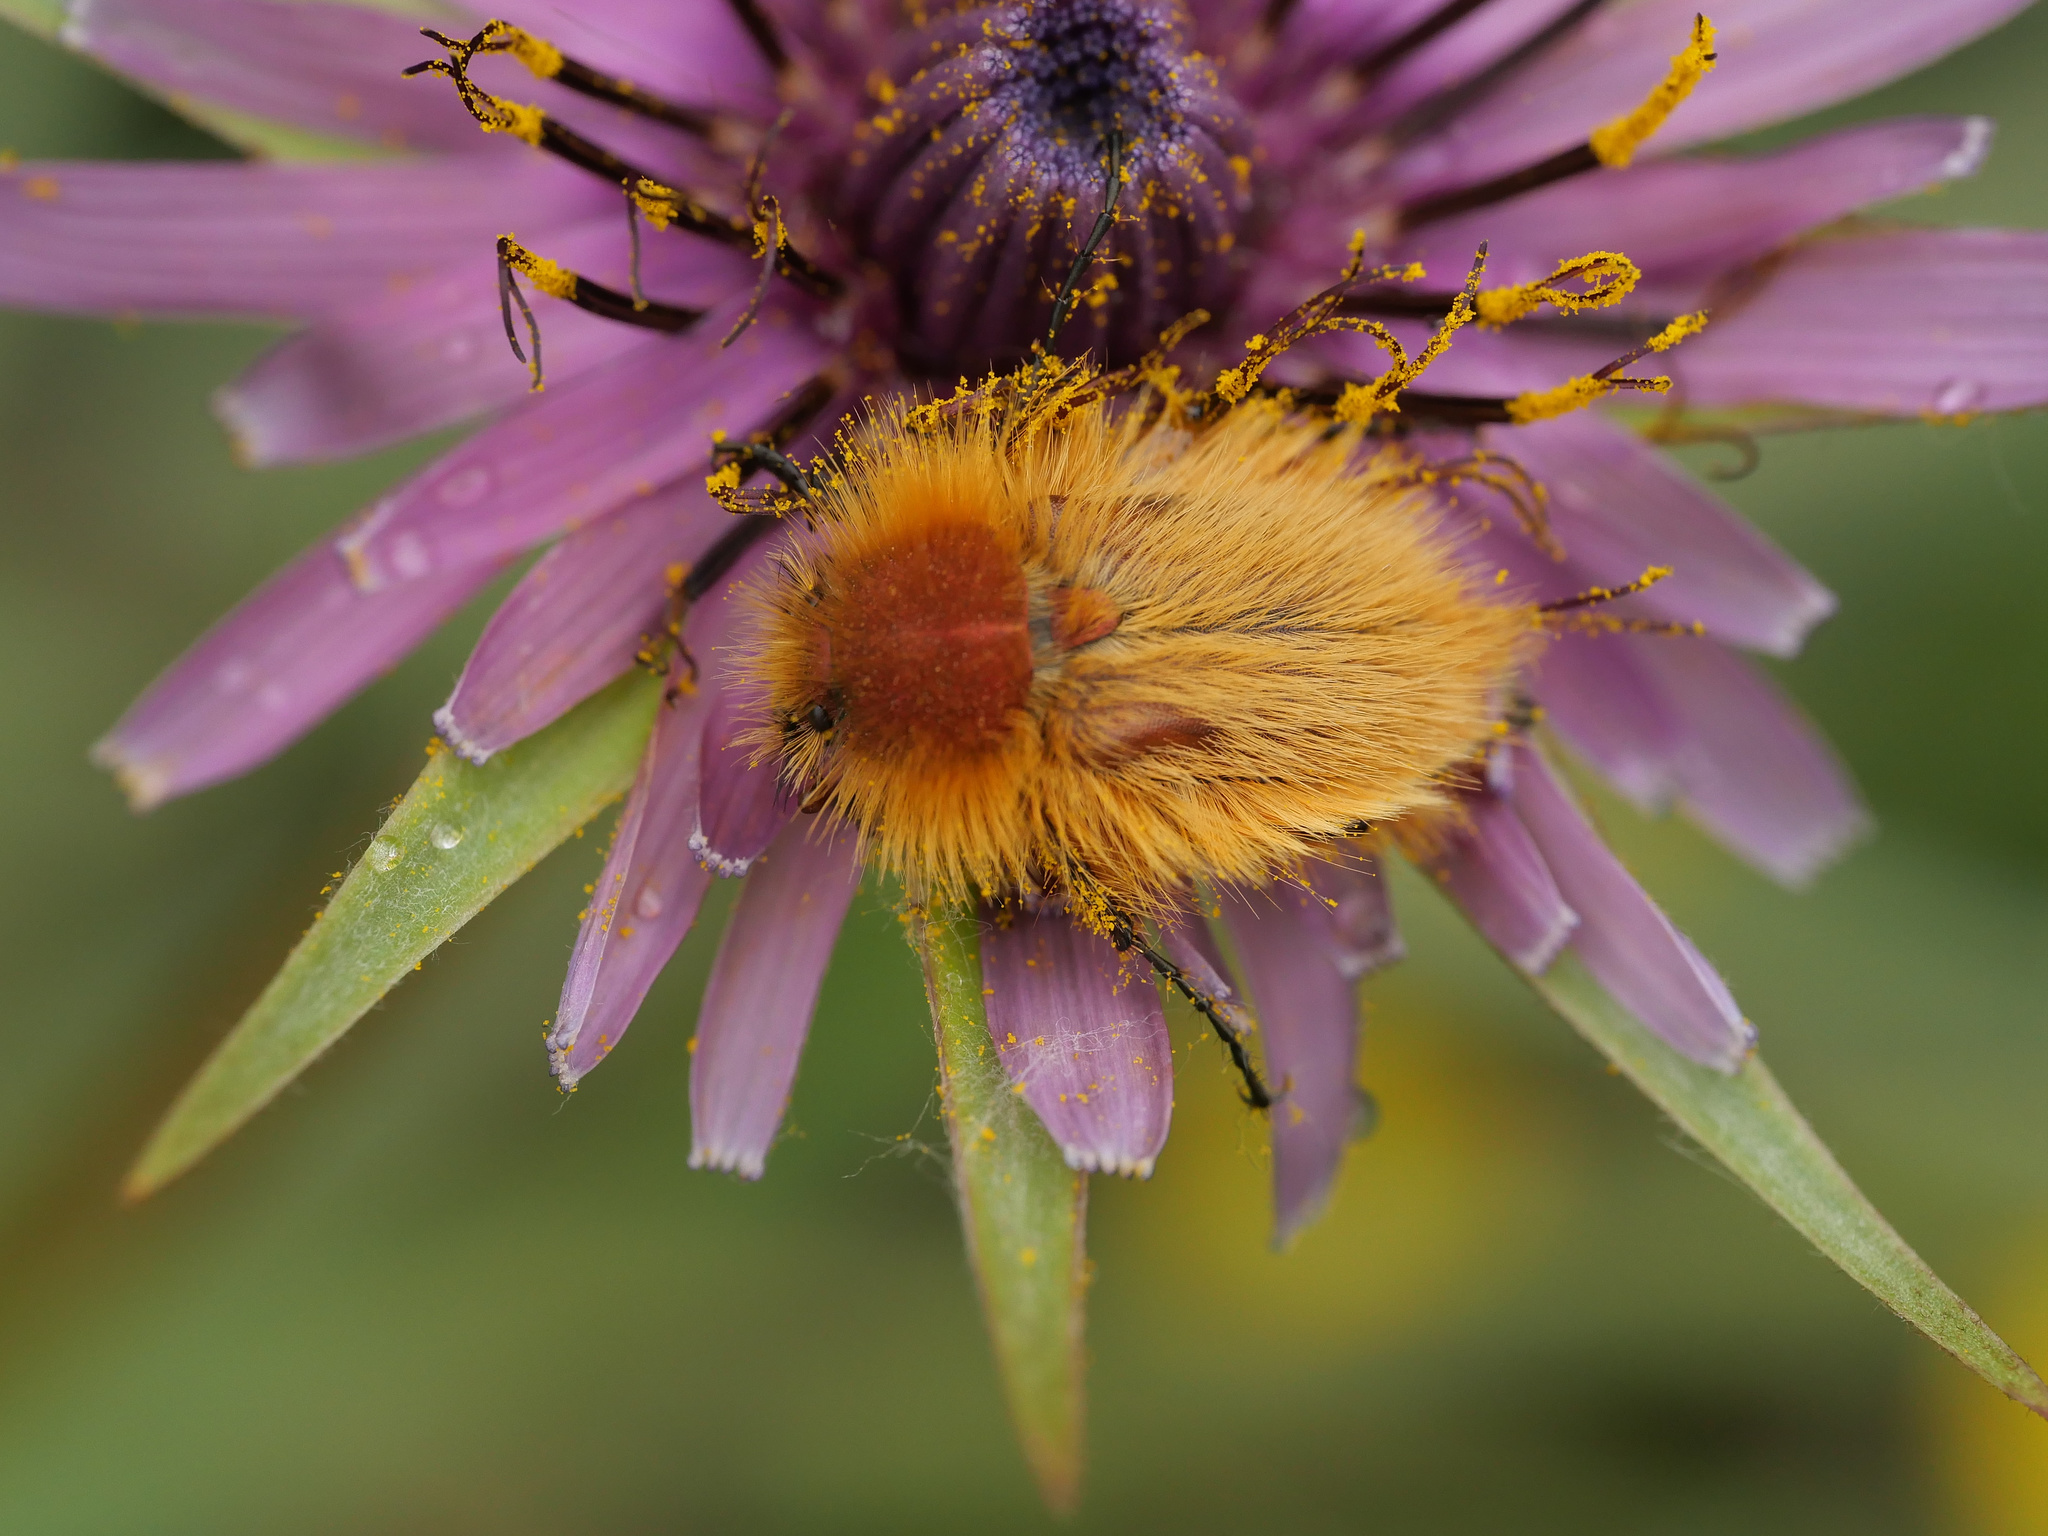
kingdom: Animalia
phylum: Arthropoda
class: Insecta
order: Coleoptera
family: Glaphyridae
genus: Pygopleurus
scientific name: Pygopleurus vulpes
